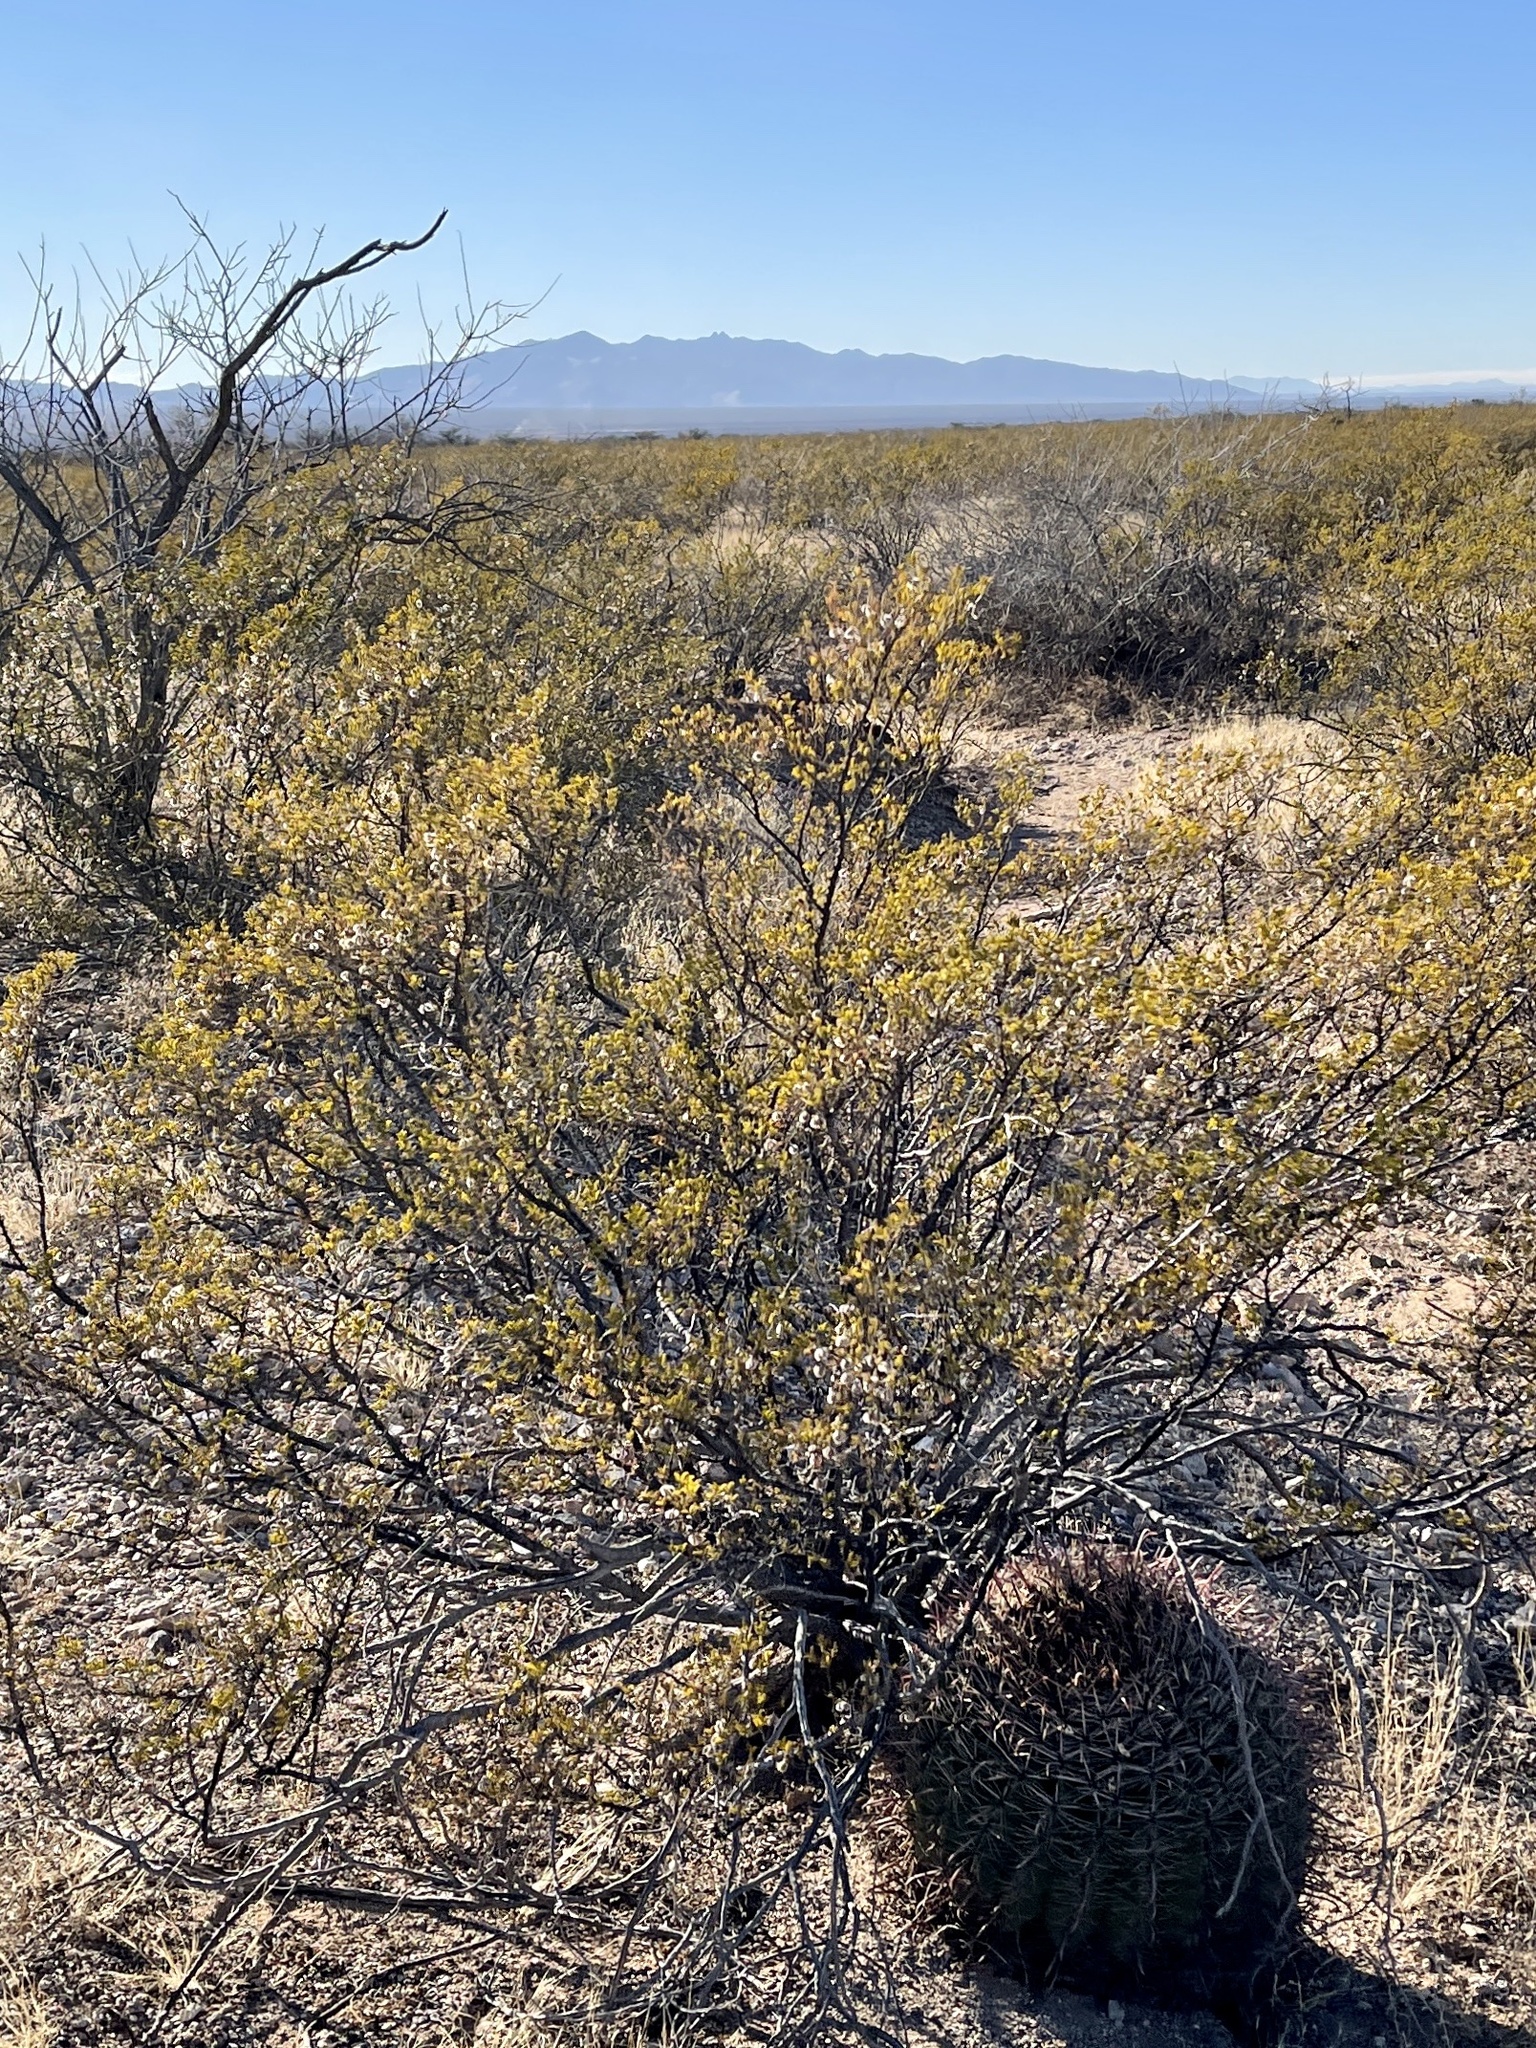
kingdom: Plantae
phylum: Tracheophyta
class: Magnoliopsida
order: Zygophyllales
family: Zygophyllaceae
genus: Larrea
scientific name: Larrea tridentata
